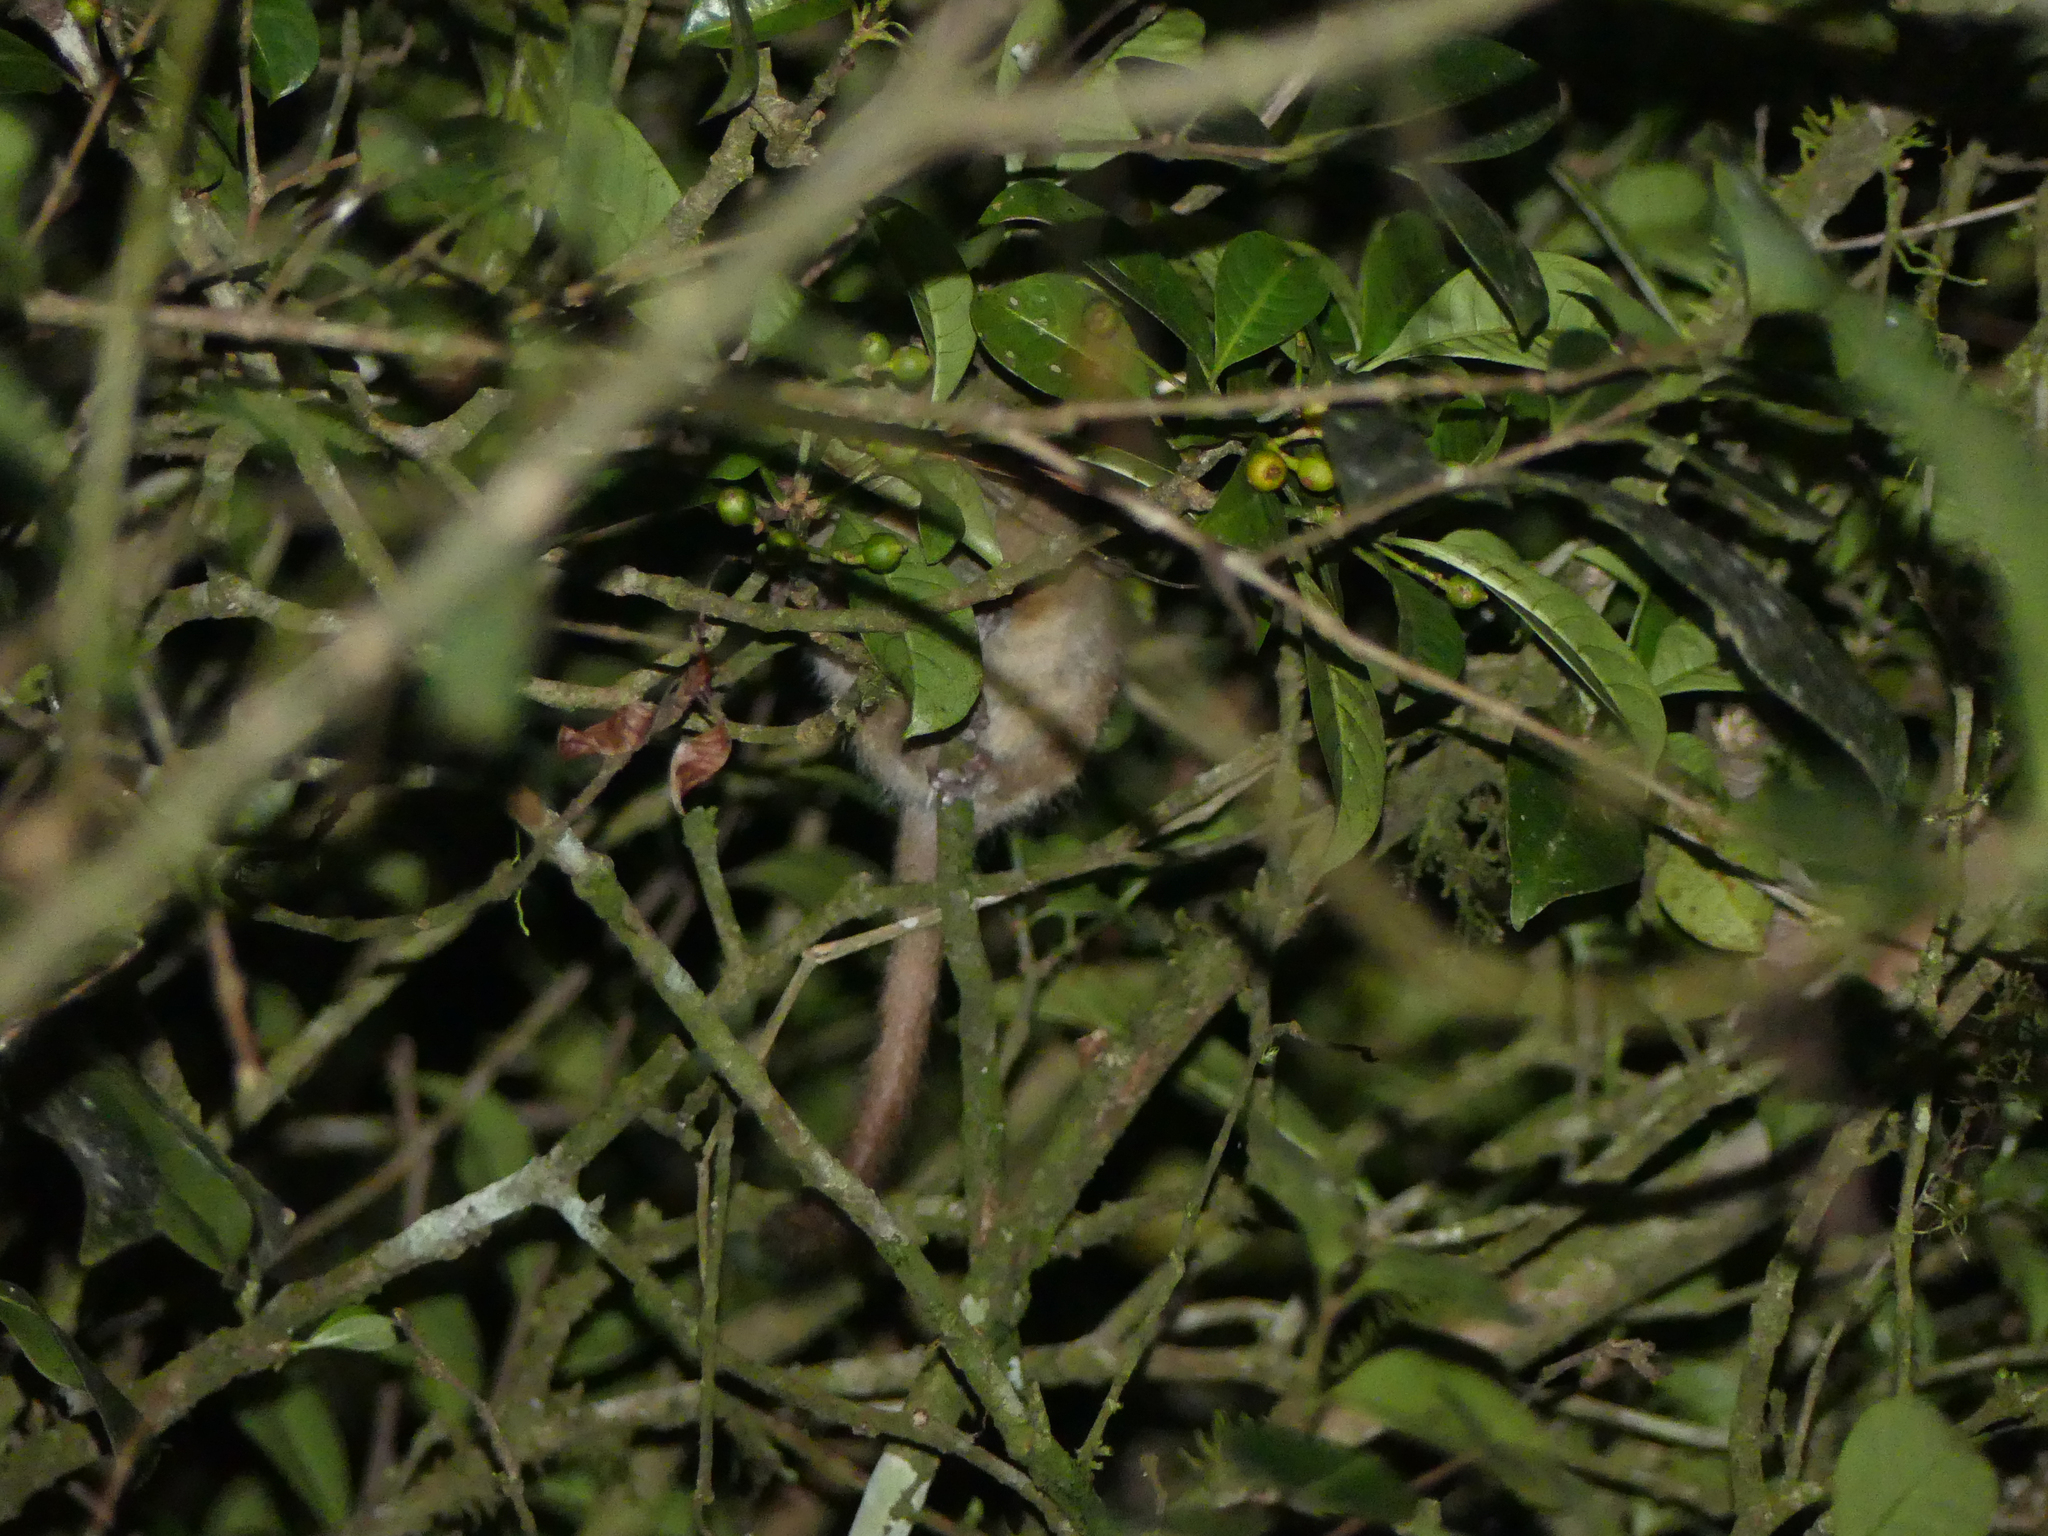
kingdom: Animalia
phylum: Chordata
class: Mammalia
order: Primates
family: Cheirogaleidae
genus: Microcebus
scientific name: Microcebus rufus
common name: Brown mouse lemur
